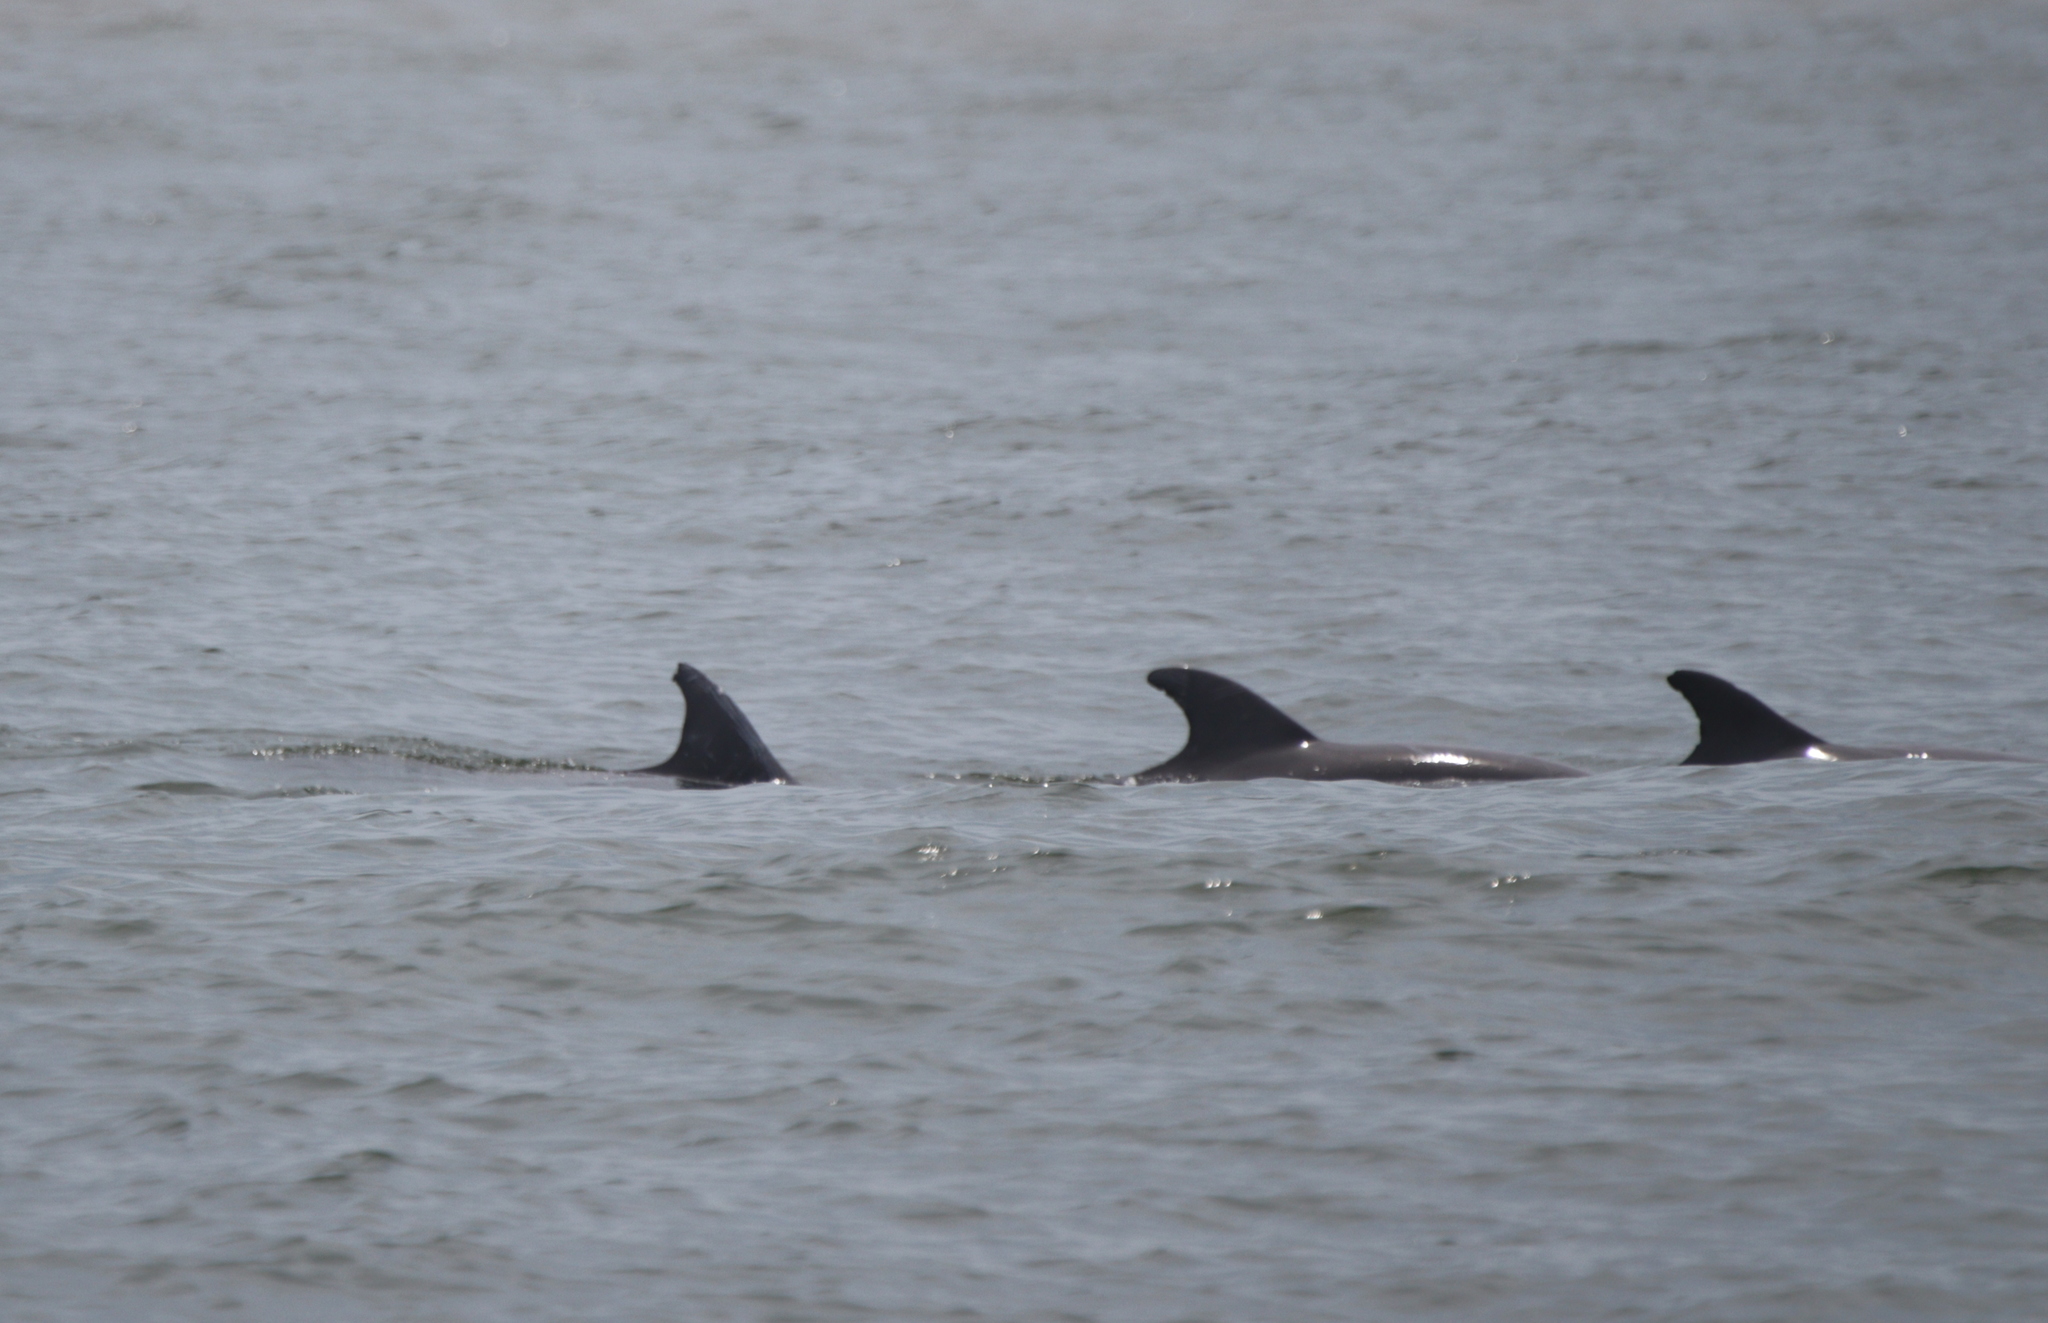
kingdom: Animalia
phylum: Chordata
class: Mammalia
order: Cetacea
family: Delphinidae
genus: Tursiops
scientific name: Tursiops truncatus
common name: Bottlenose dolphin
